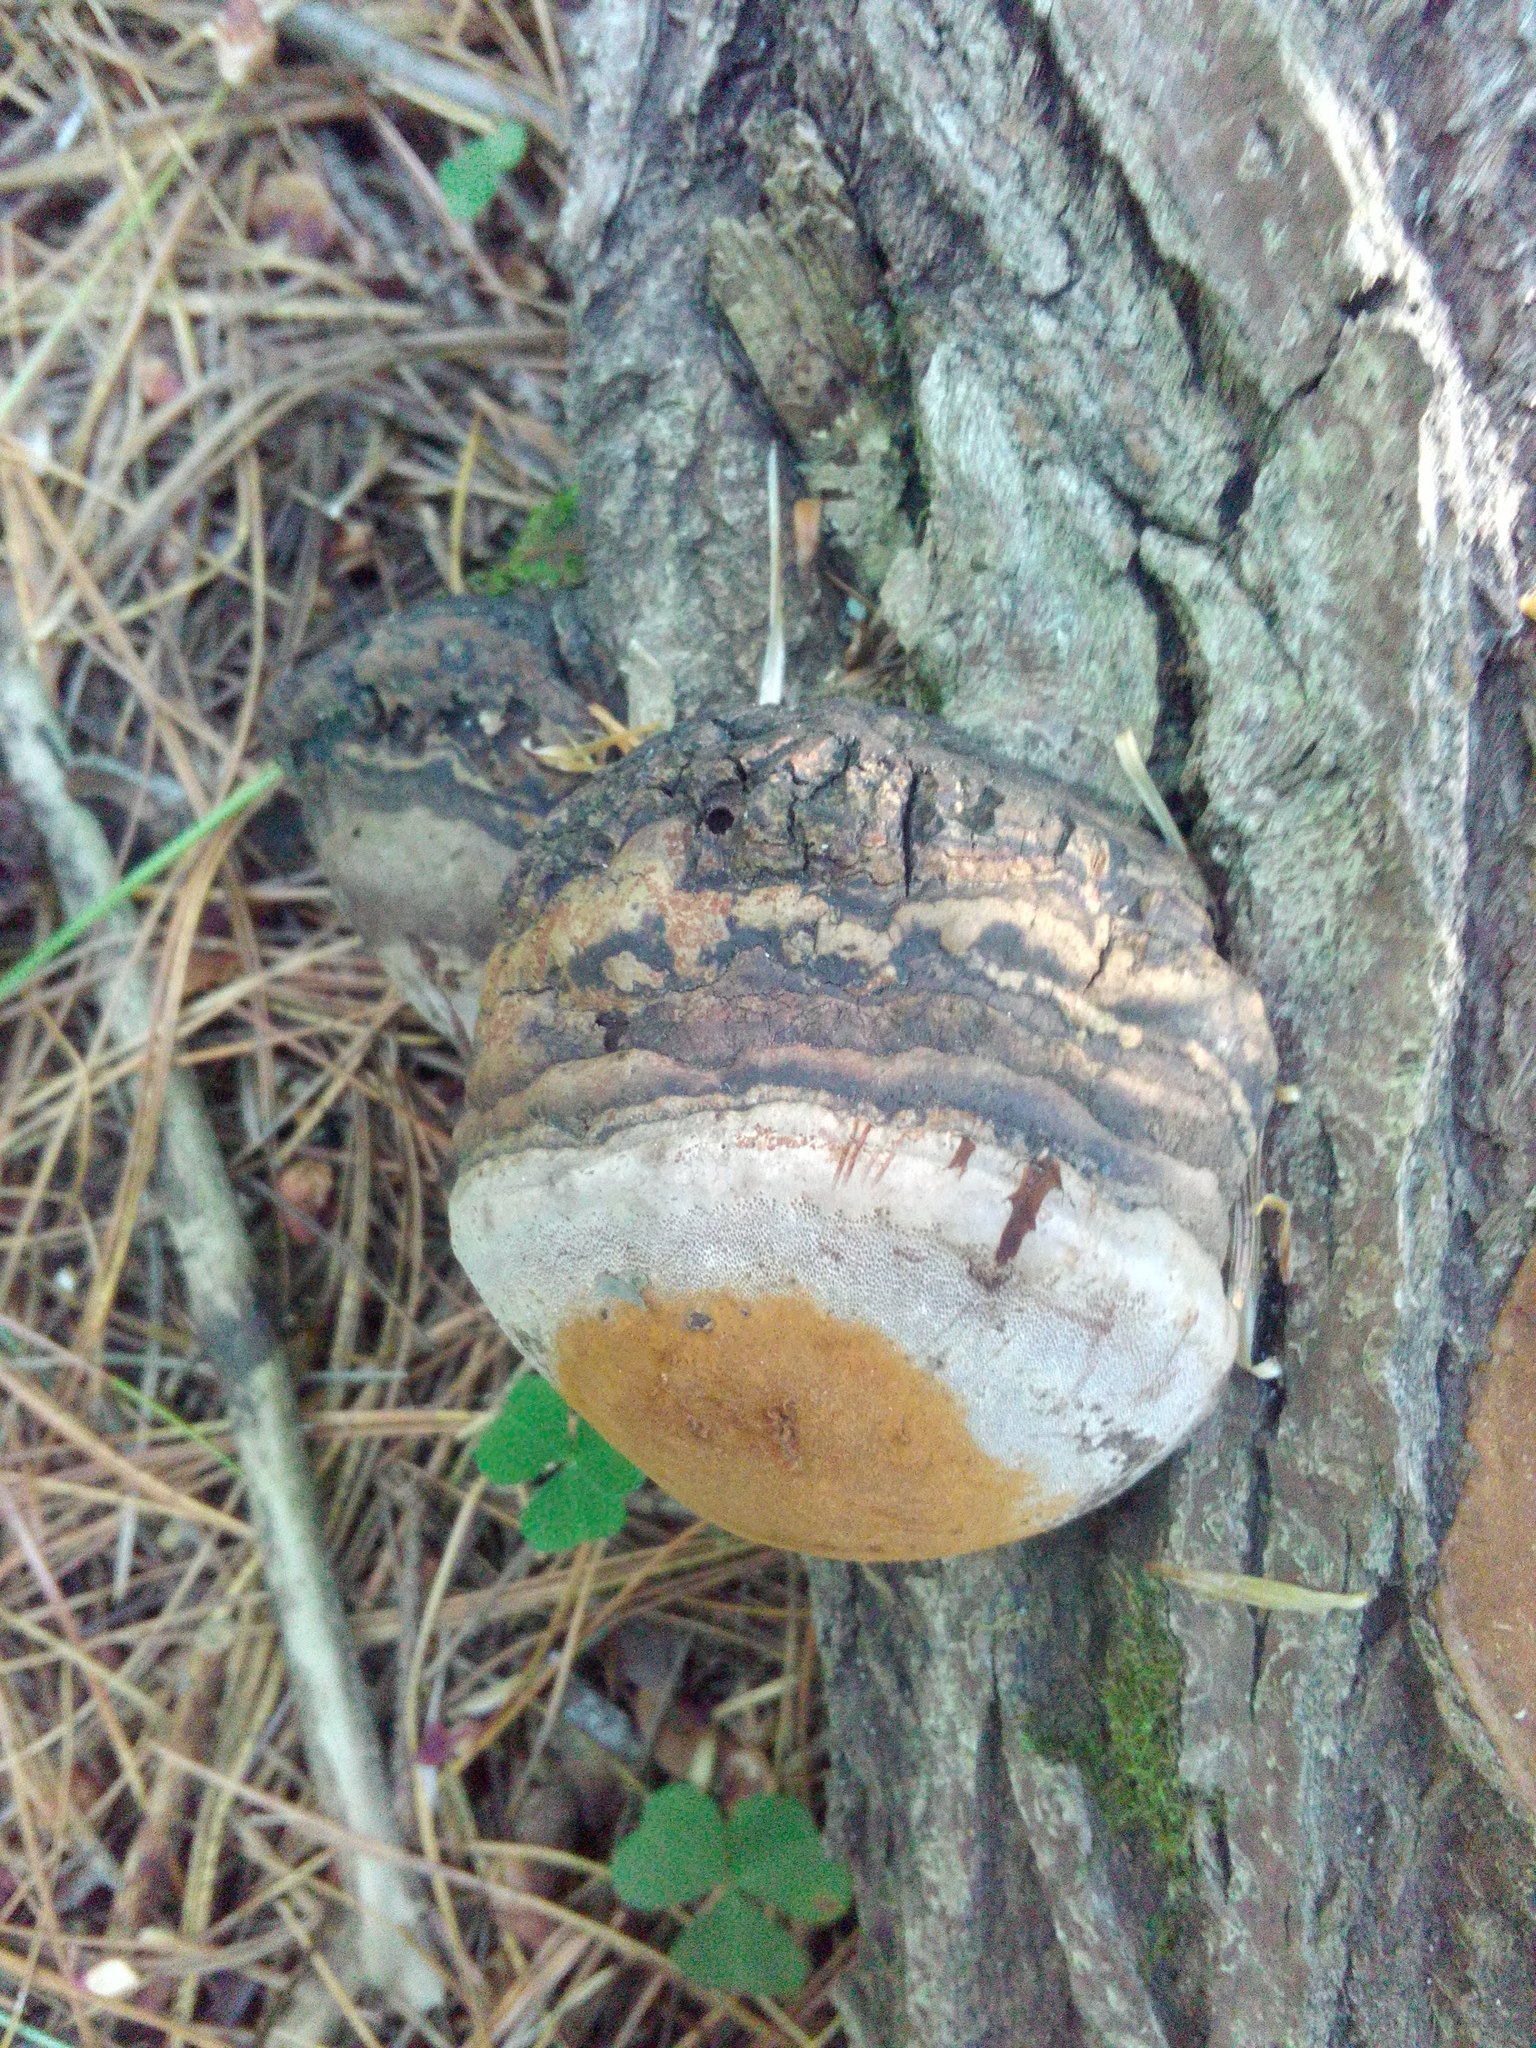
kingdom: Fungi
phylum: Basidiomycota
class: Agaricomycetes
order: Hymenochaetales
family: Hymenochaetaceae
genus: Phellinus
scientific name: Phellinus igniarius
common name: Willow bracket
